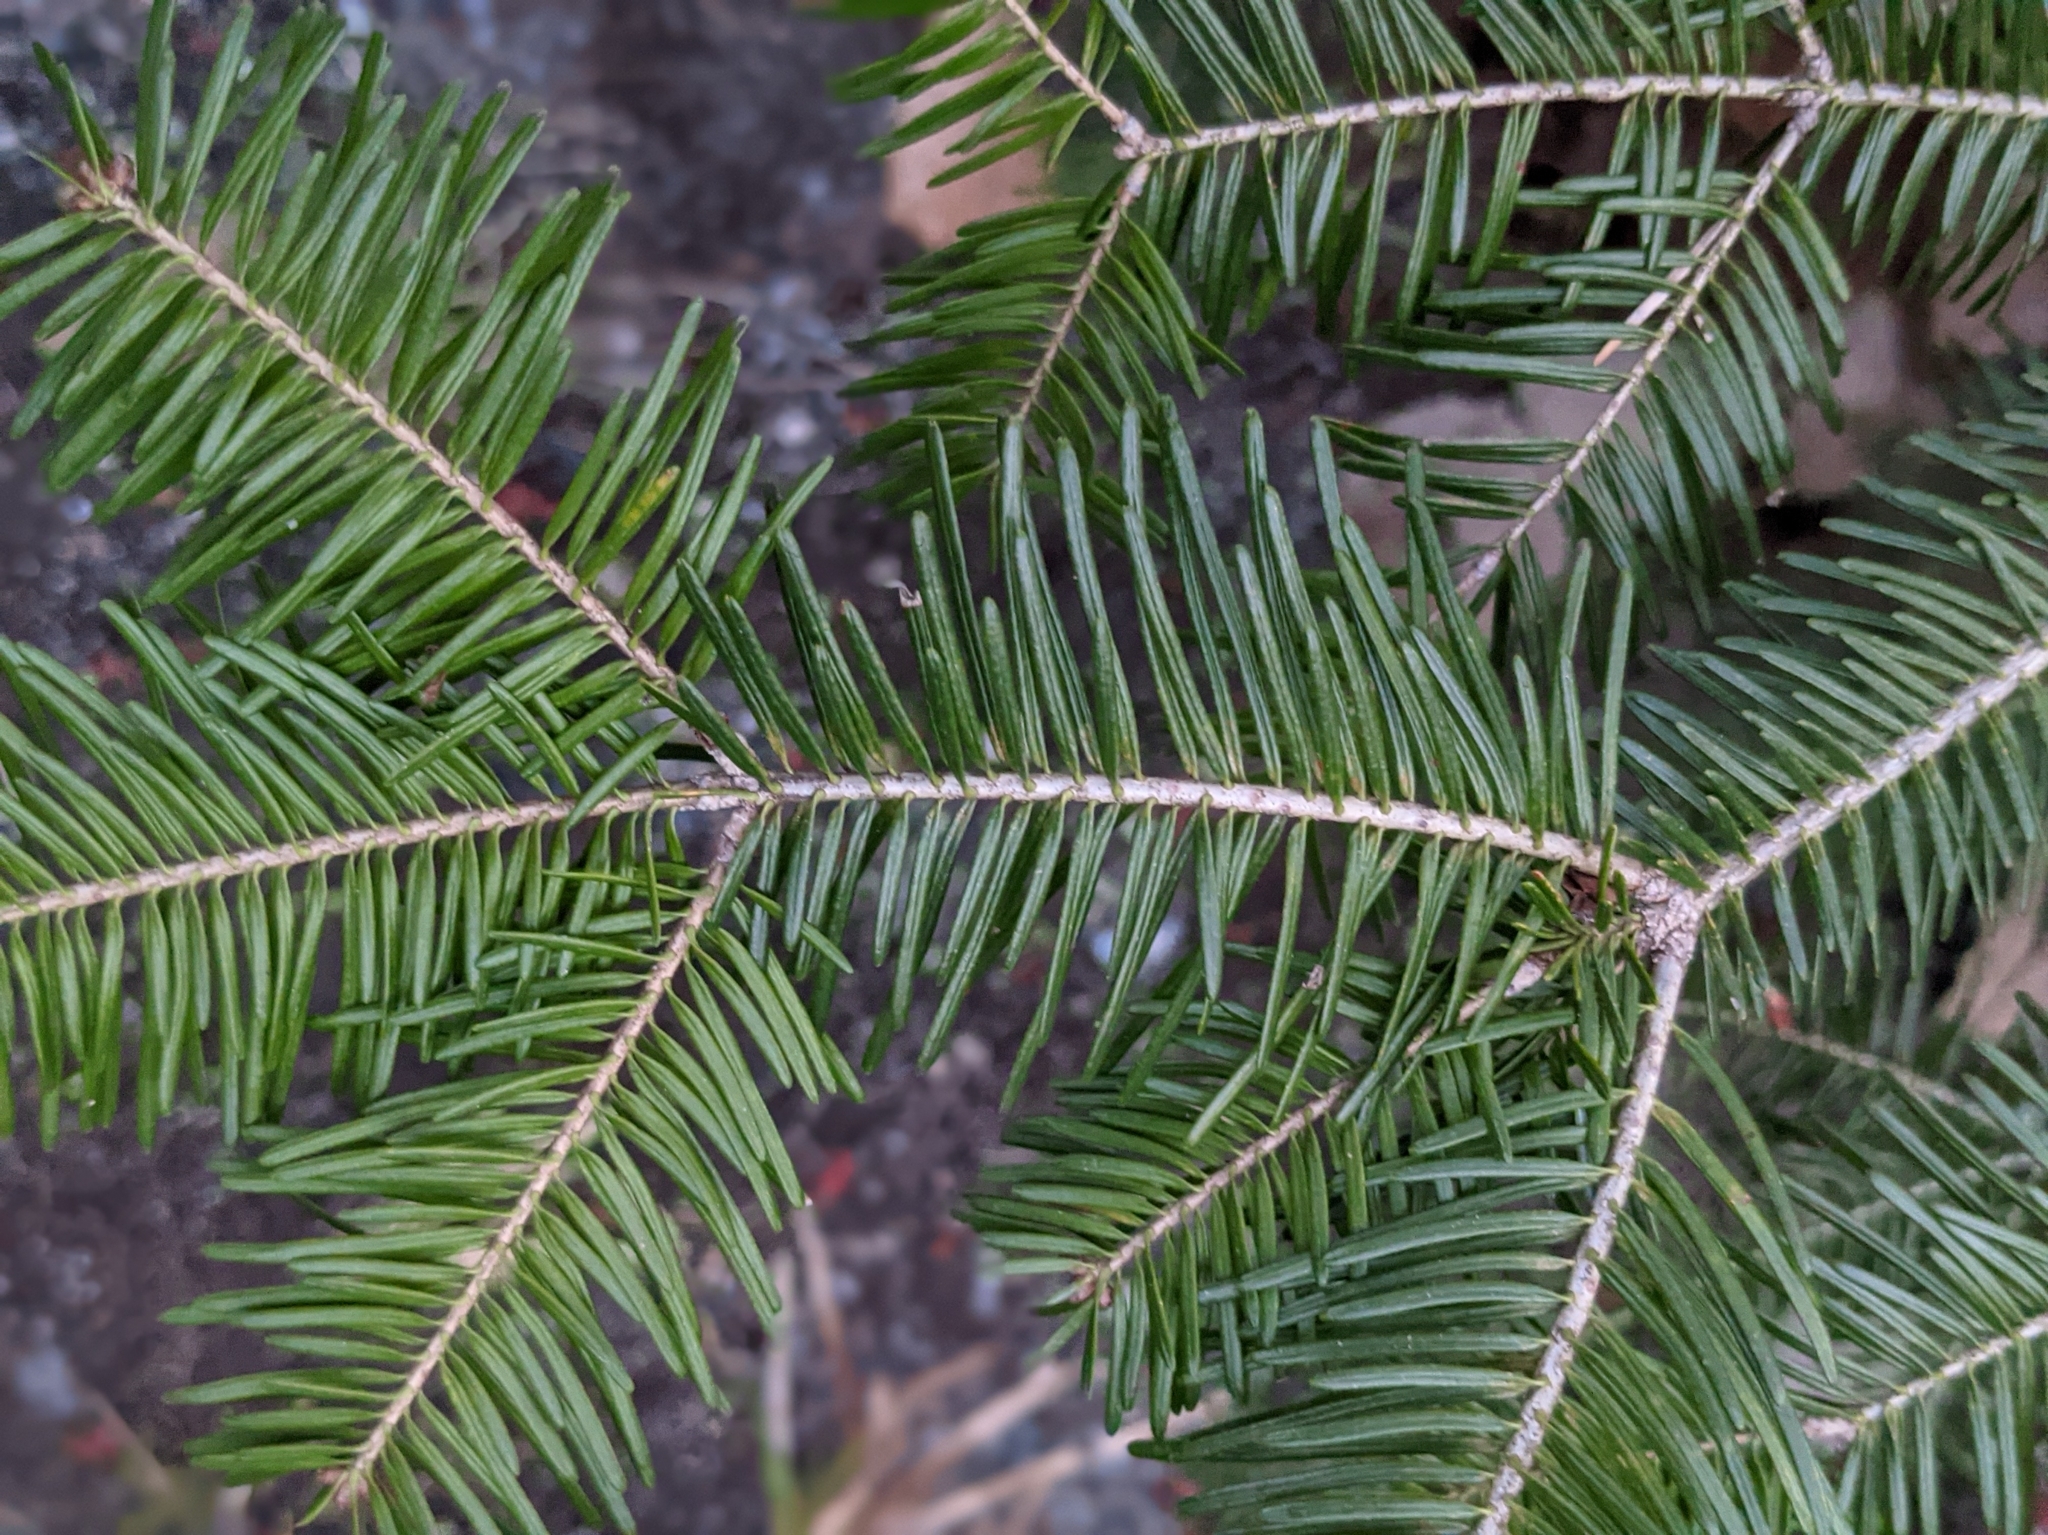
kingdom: Plantae
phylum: Tracheophyta
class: Pinopsida
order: Pinales
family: Pinaceae
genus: Abies
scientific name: Abies balsamea
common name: Balsam fir
